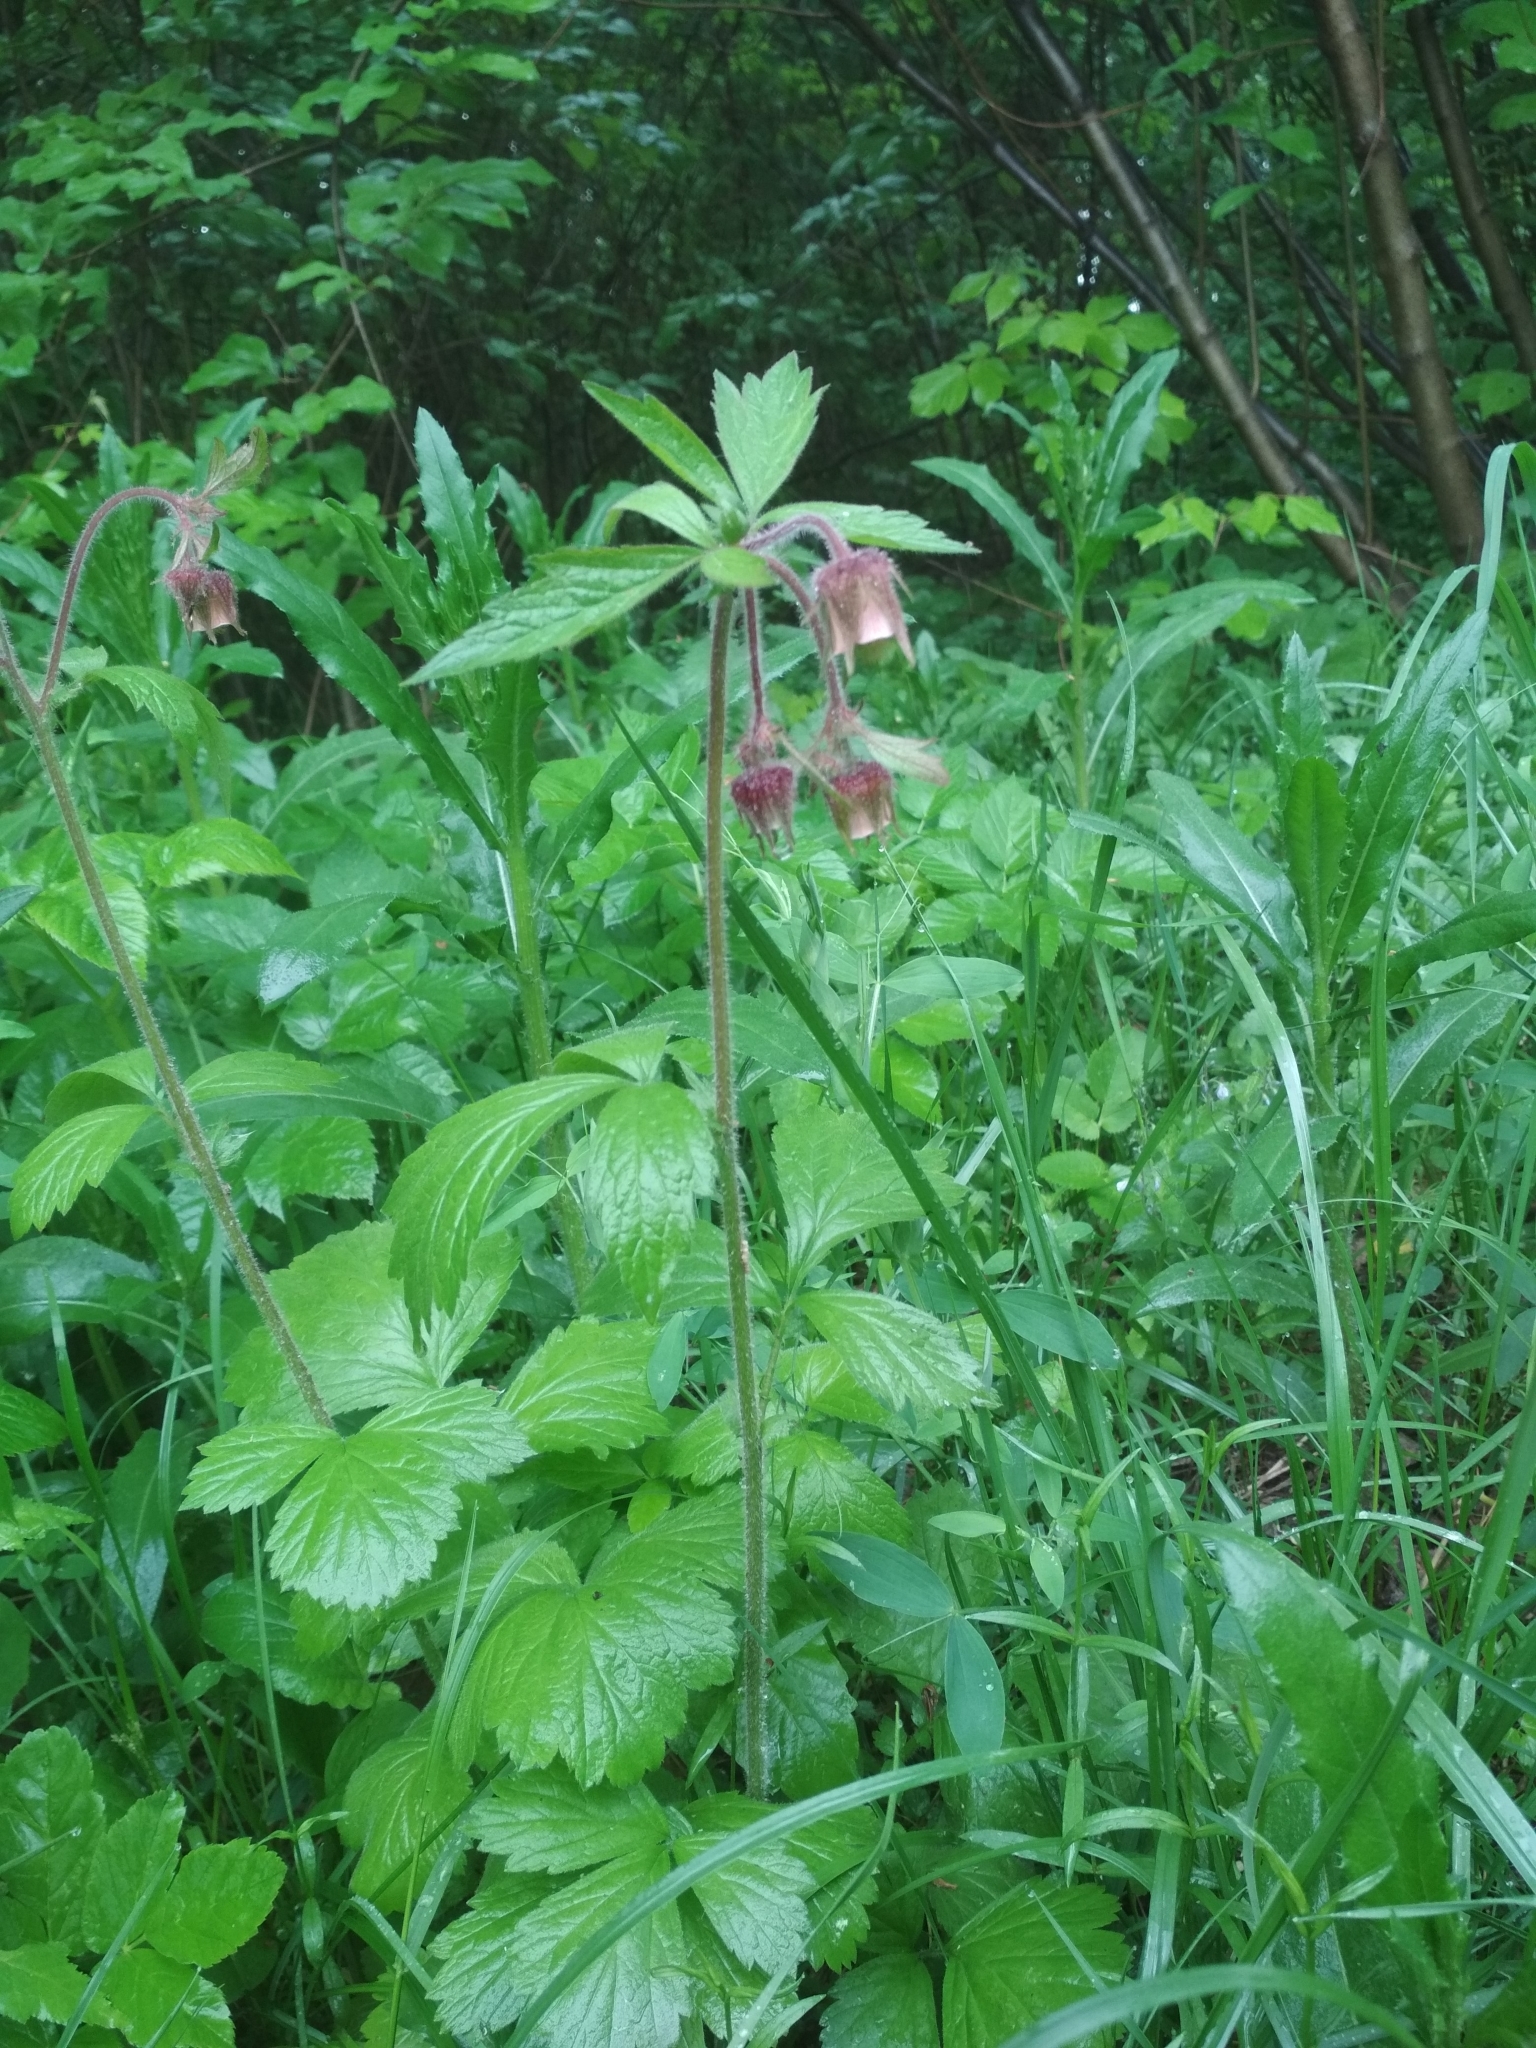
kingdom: Plantae
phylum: Tracheophyta
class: Magnoliopsida
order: Rosales
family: Rosaceae
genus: Geum
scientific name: Geum rivale
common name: Water avens
